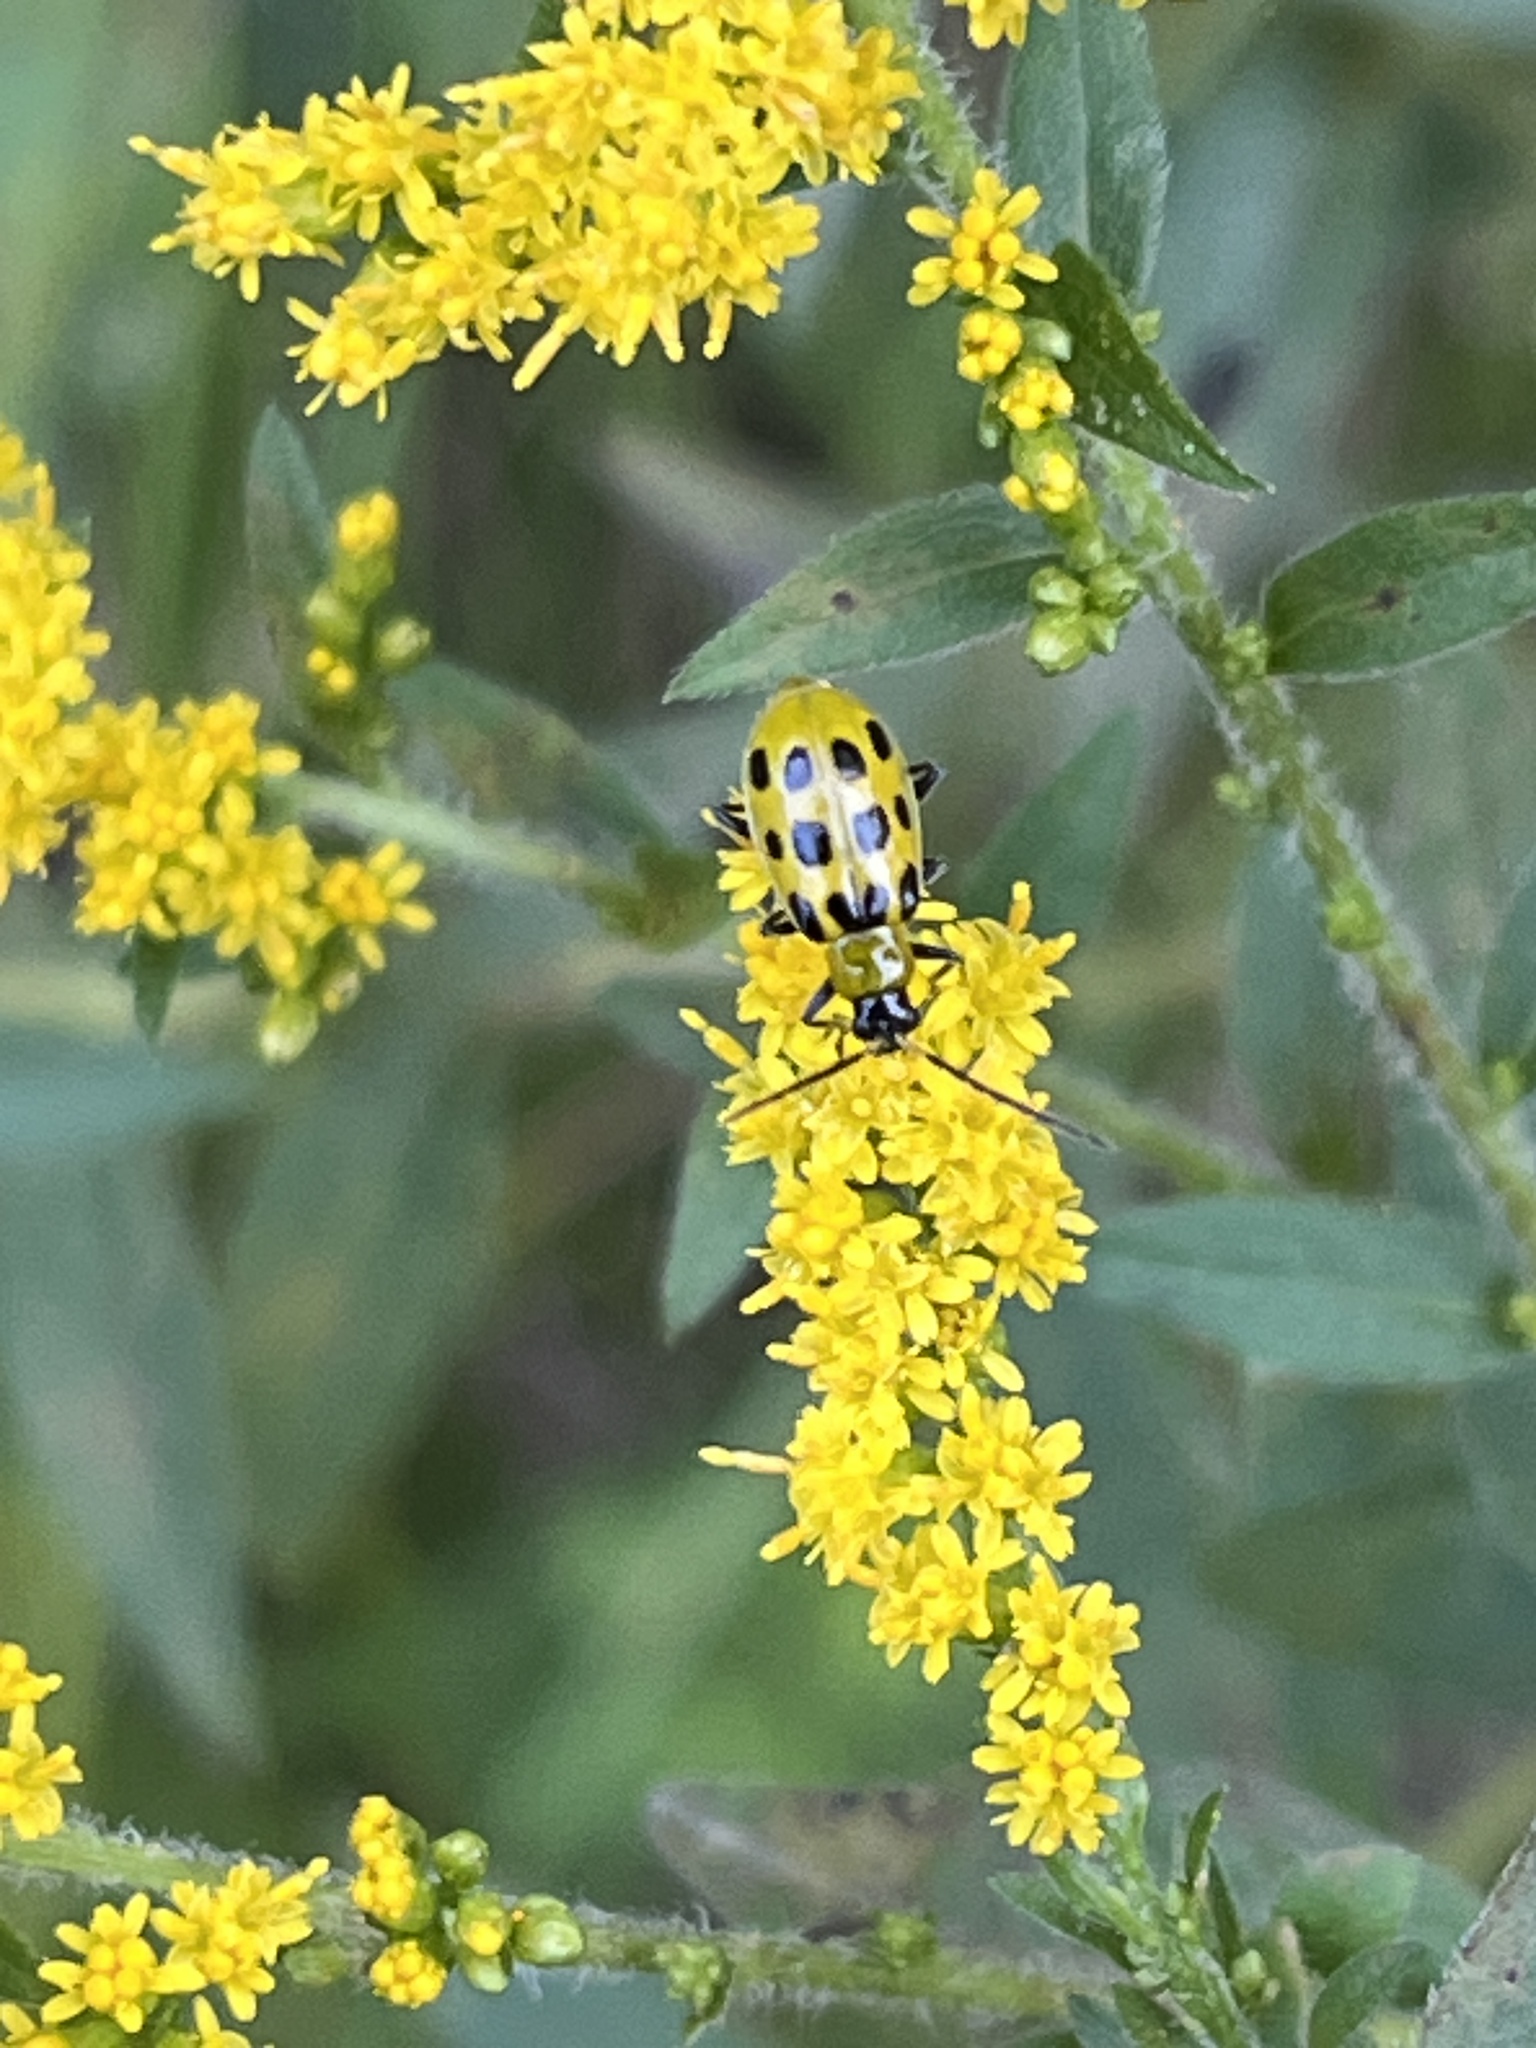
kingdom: Animalia
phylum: Arthropoda
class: Insecta
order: Coleoptera
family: Chrysomelidae
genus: Diabrotica
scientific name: Diabrotica undecimpunctata
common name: Spotted cucumber beetle
